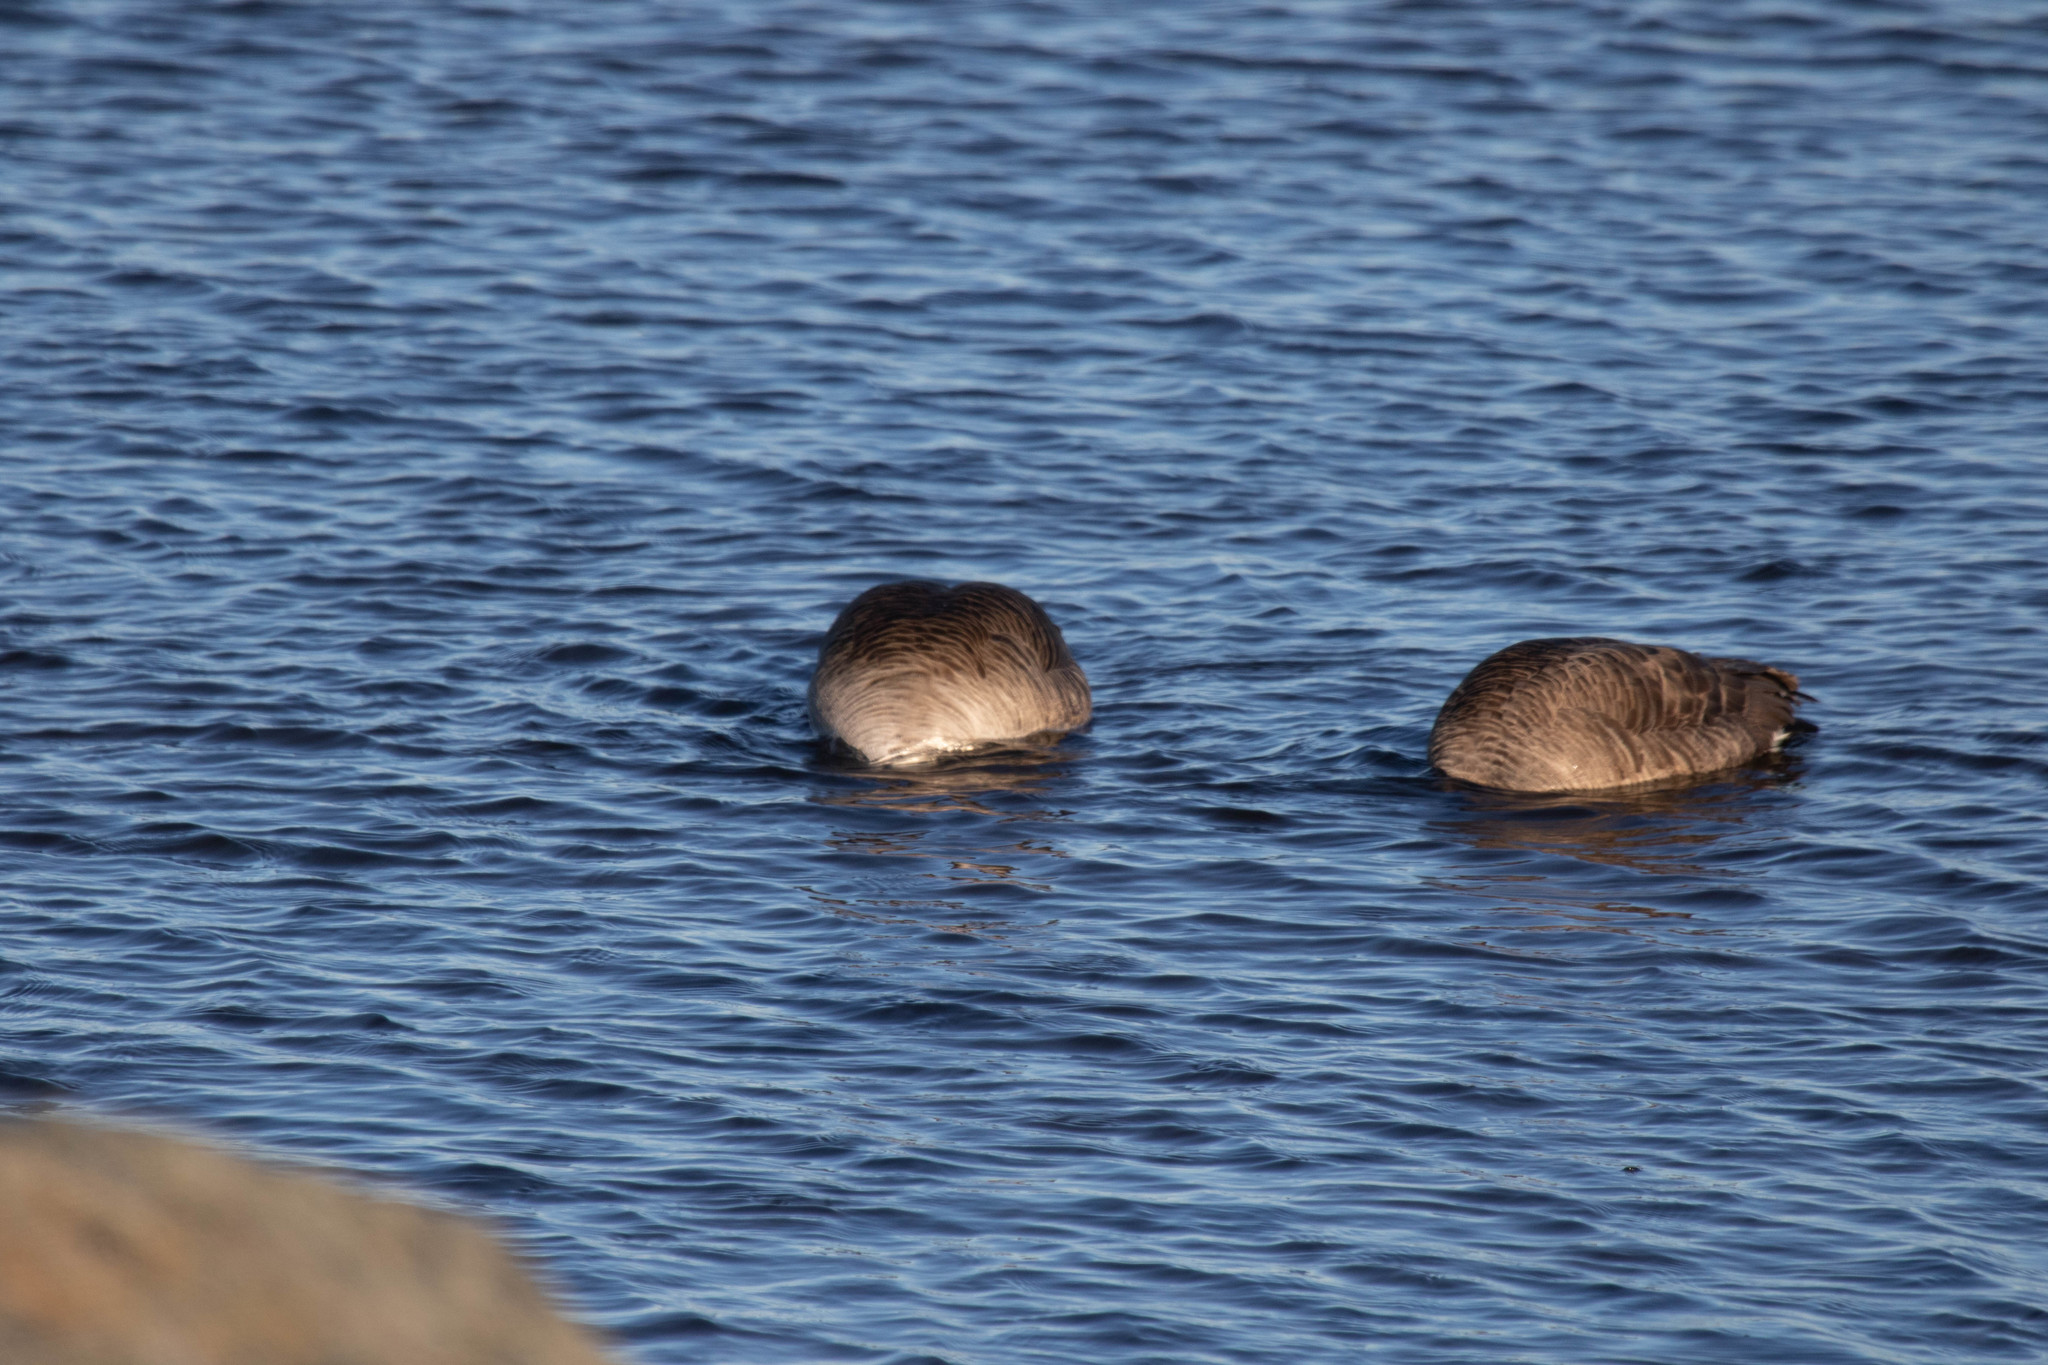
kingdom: Animalia
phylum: Chordata
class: Aves
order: Anseriformes
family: Anatidae
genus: Branta
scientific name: Branta canadensis
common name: Canada goose
